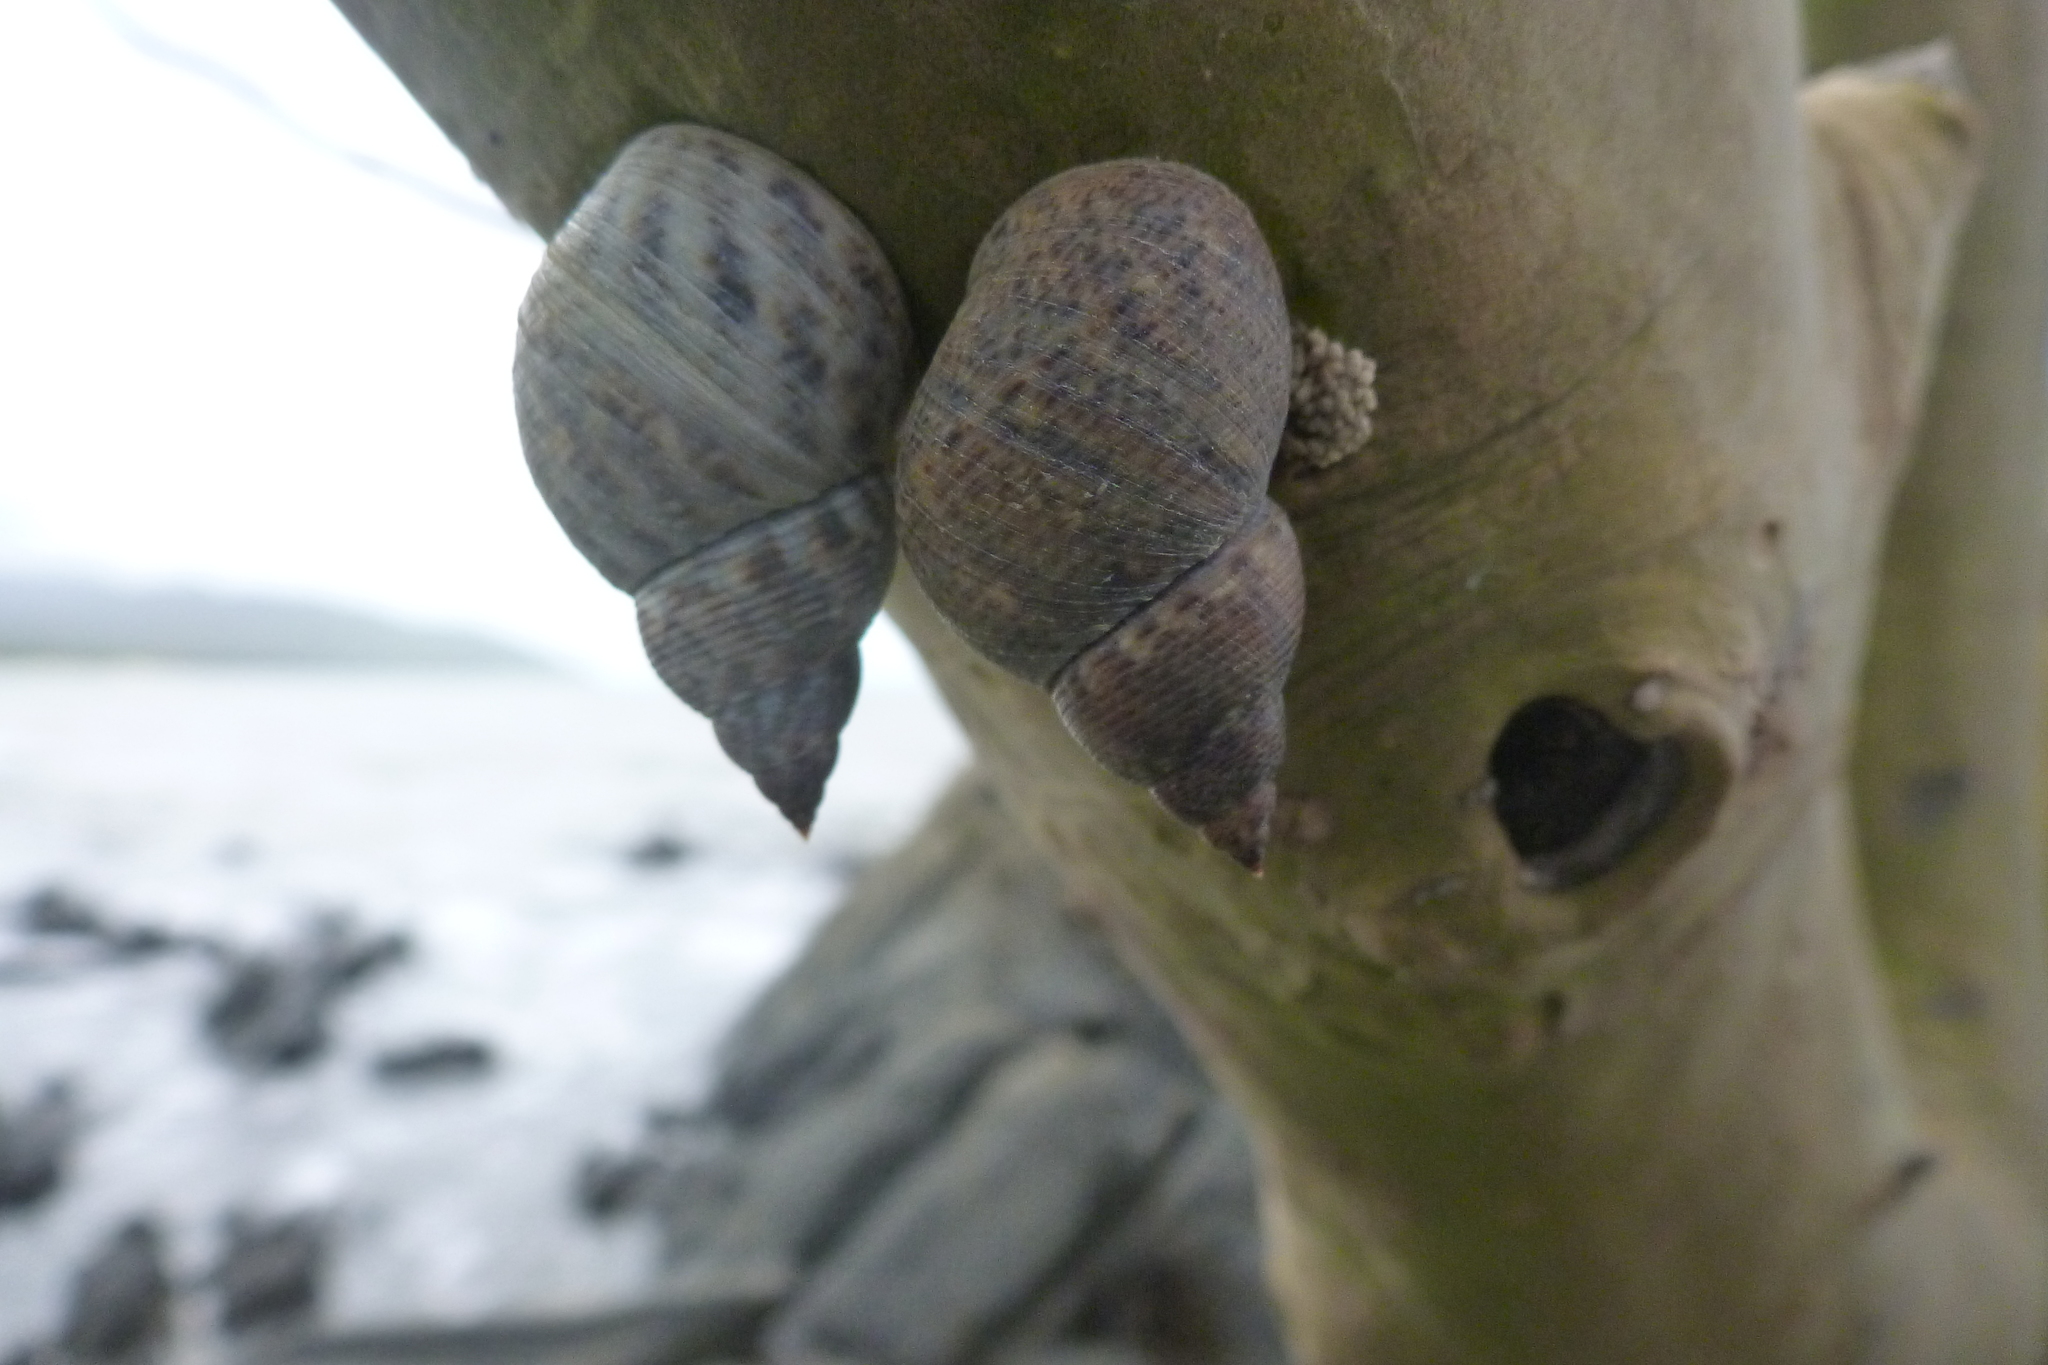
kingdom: Animalia
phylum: Mollusca
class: Gastropoda
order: Littorinimorpha
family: Littorinidae
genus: Littoraria
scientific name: Littoraria scabra
